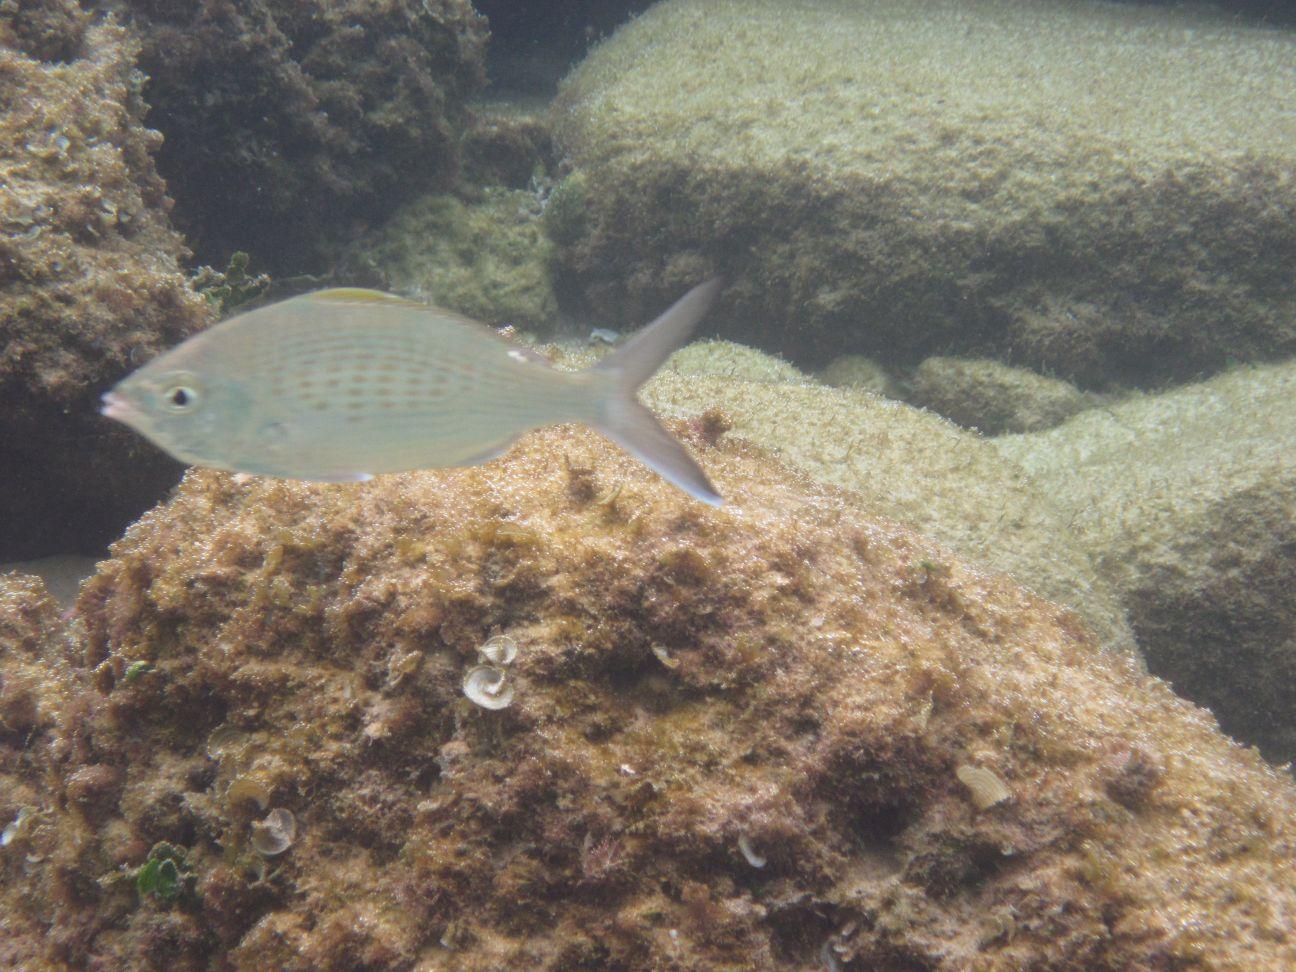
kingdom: Animalia
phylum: Chordata
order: Perciformes
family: Gerreidae
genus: Gerres
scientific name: Gerres longirostris
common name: Strongspine silver-biddy
